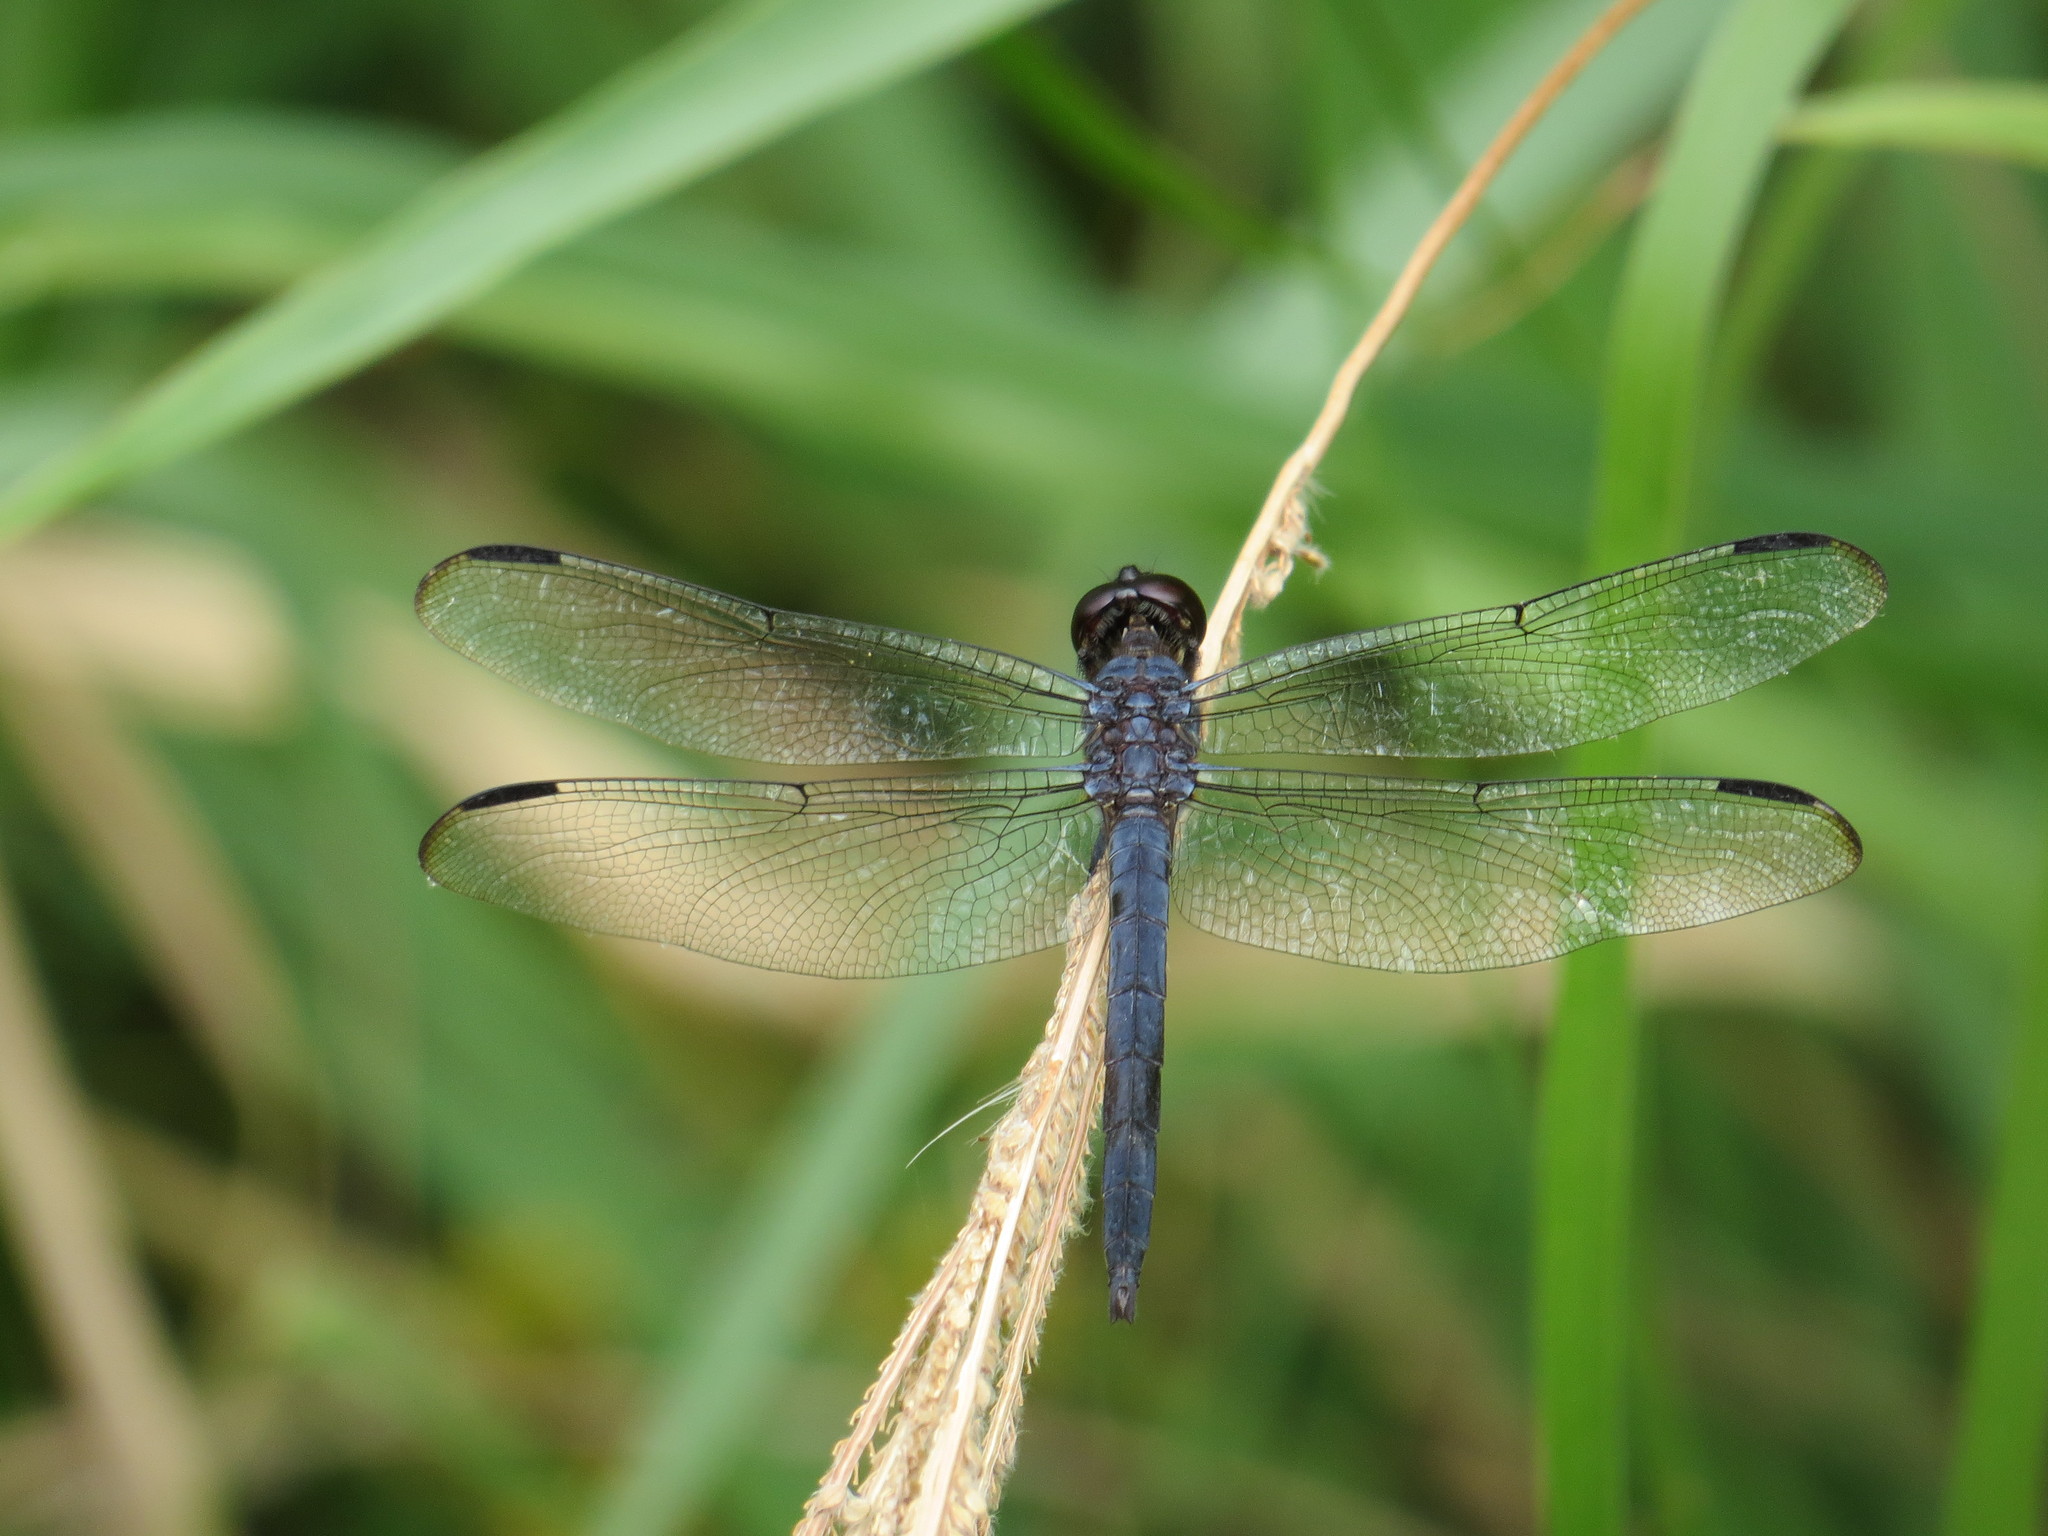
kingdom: Animalia
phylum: Arthropoda
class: Insecta
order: Odonata
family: Libellulidae
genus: Libellula
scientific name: Libellula incesta
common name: Slaty skimmer
